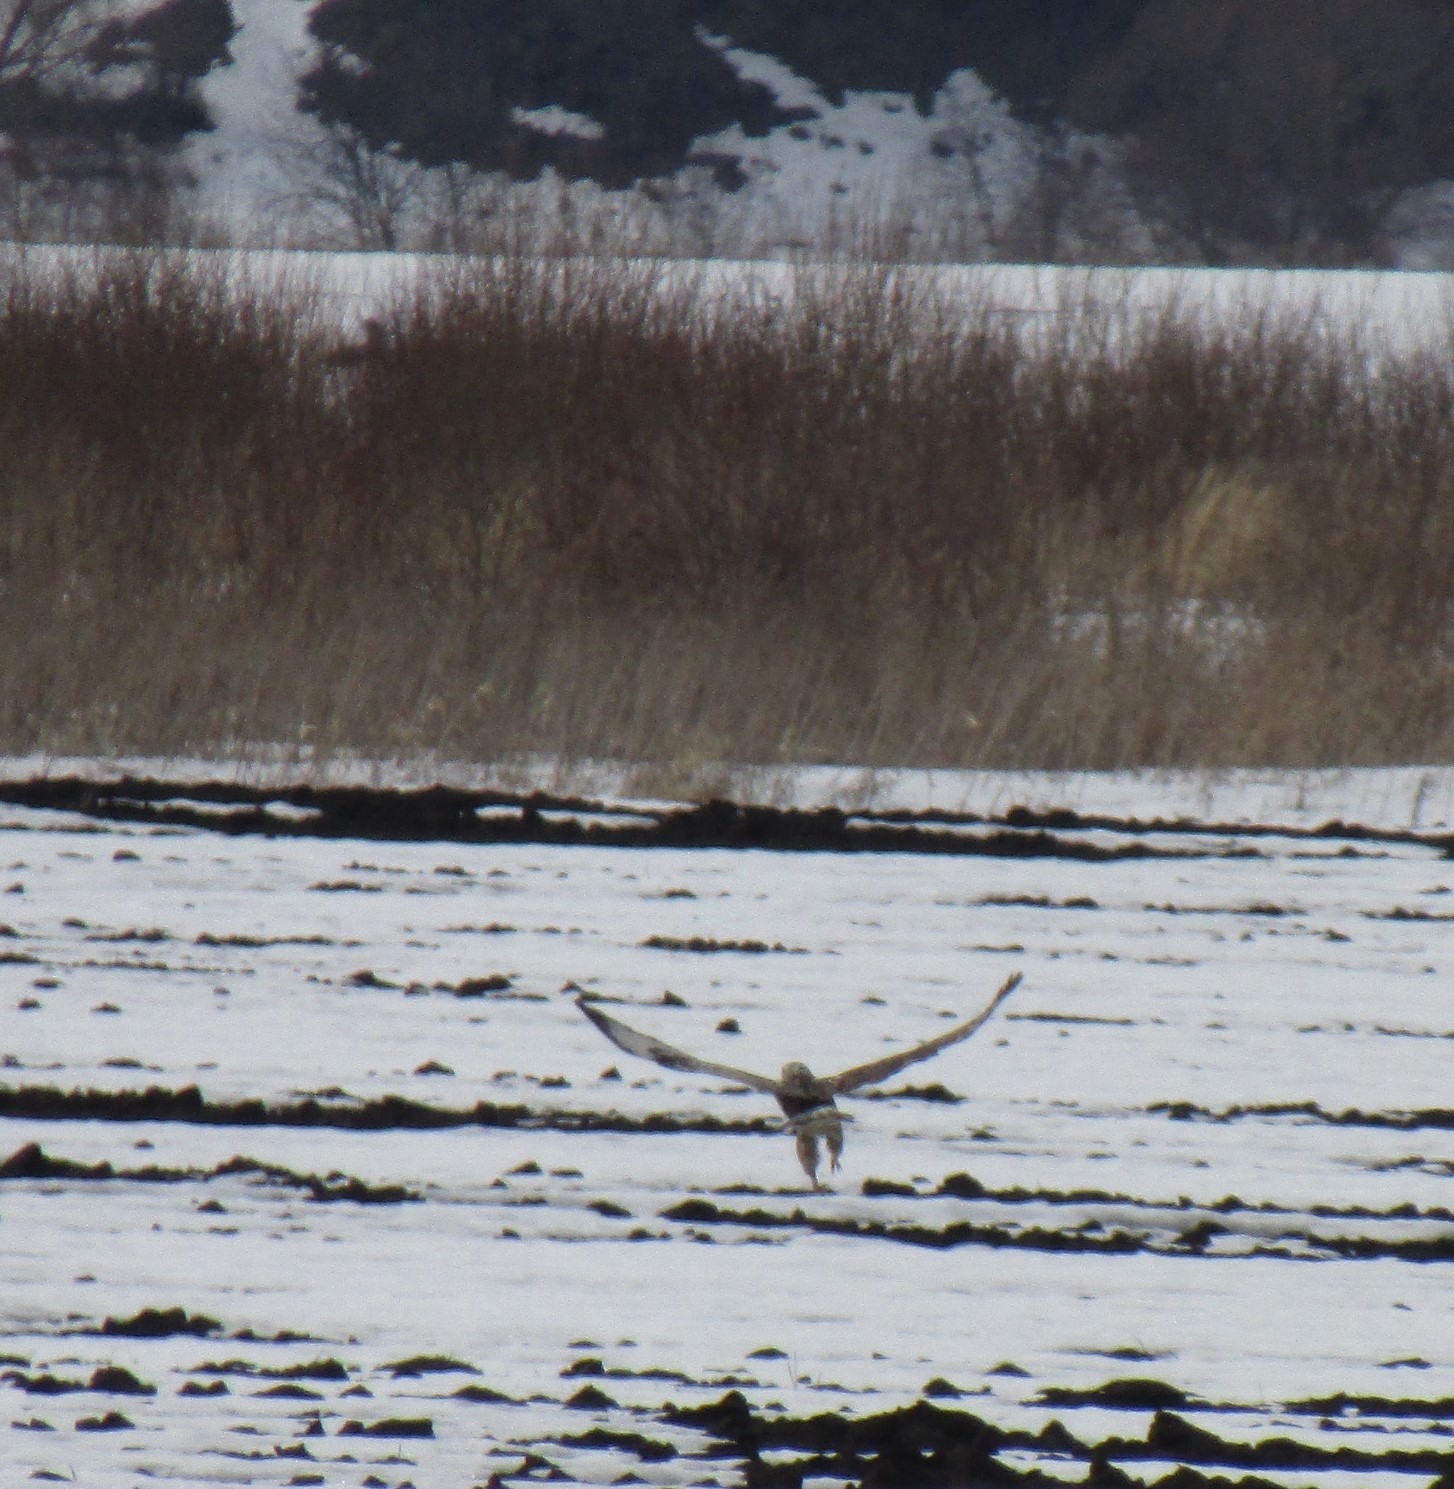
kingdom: Animalia
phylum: Chordata
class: Aves
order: Accipitriformes
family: Accipitridae
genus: Buteo
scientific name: Buteo lagopus
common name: Rough-legged buzzard
